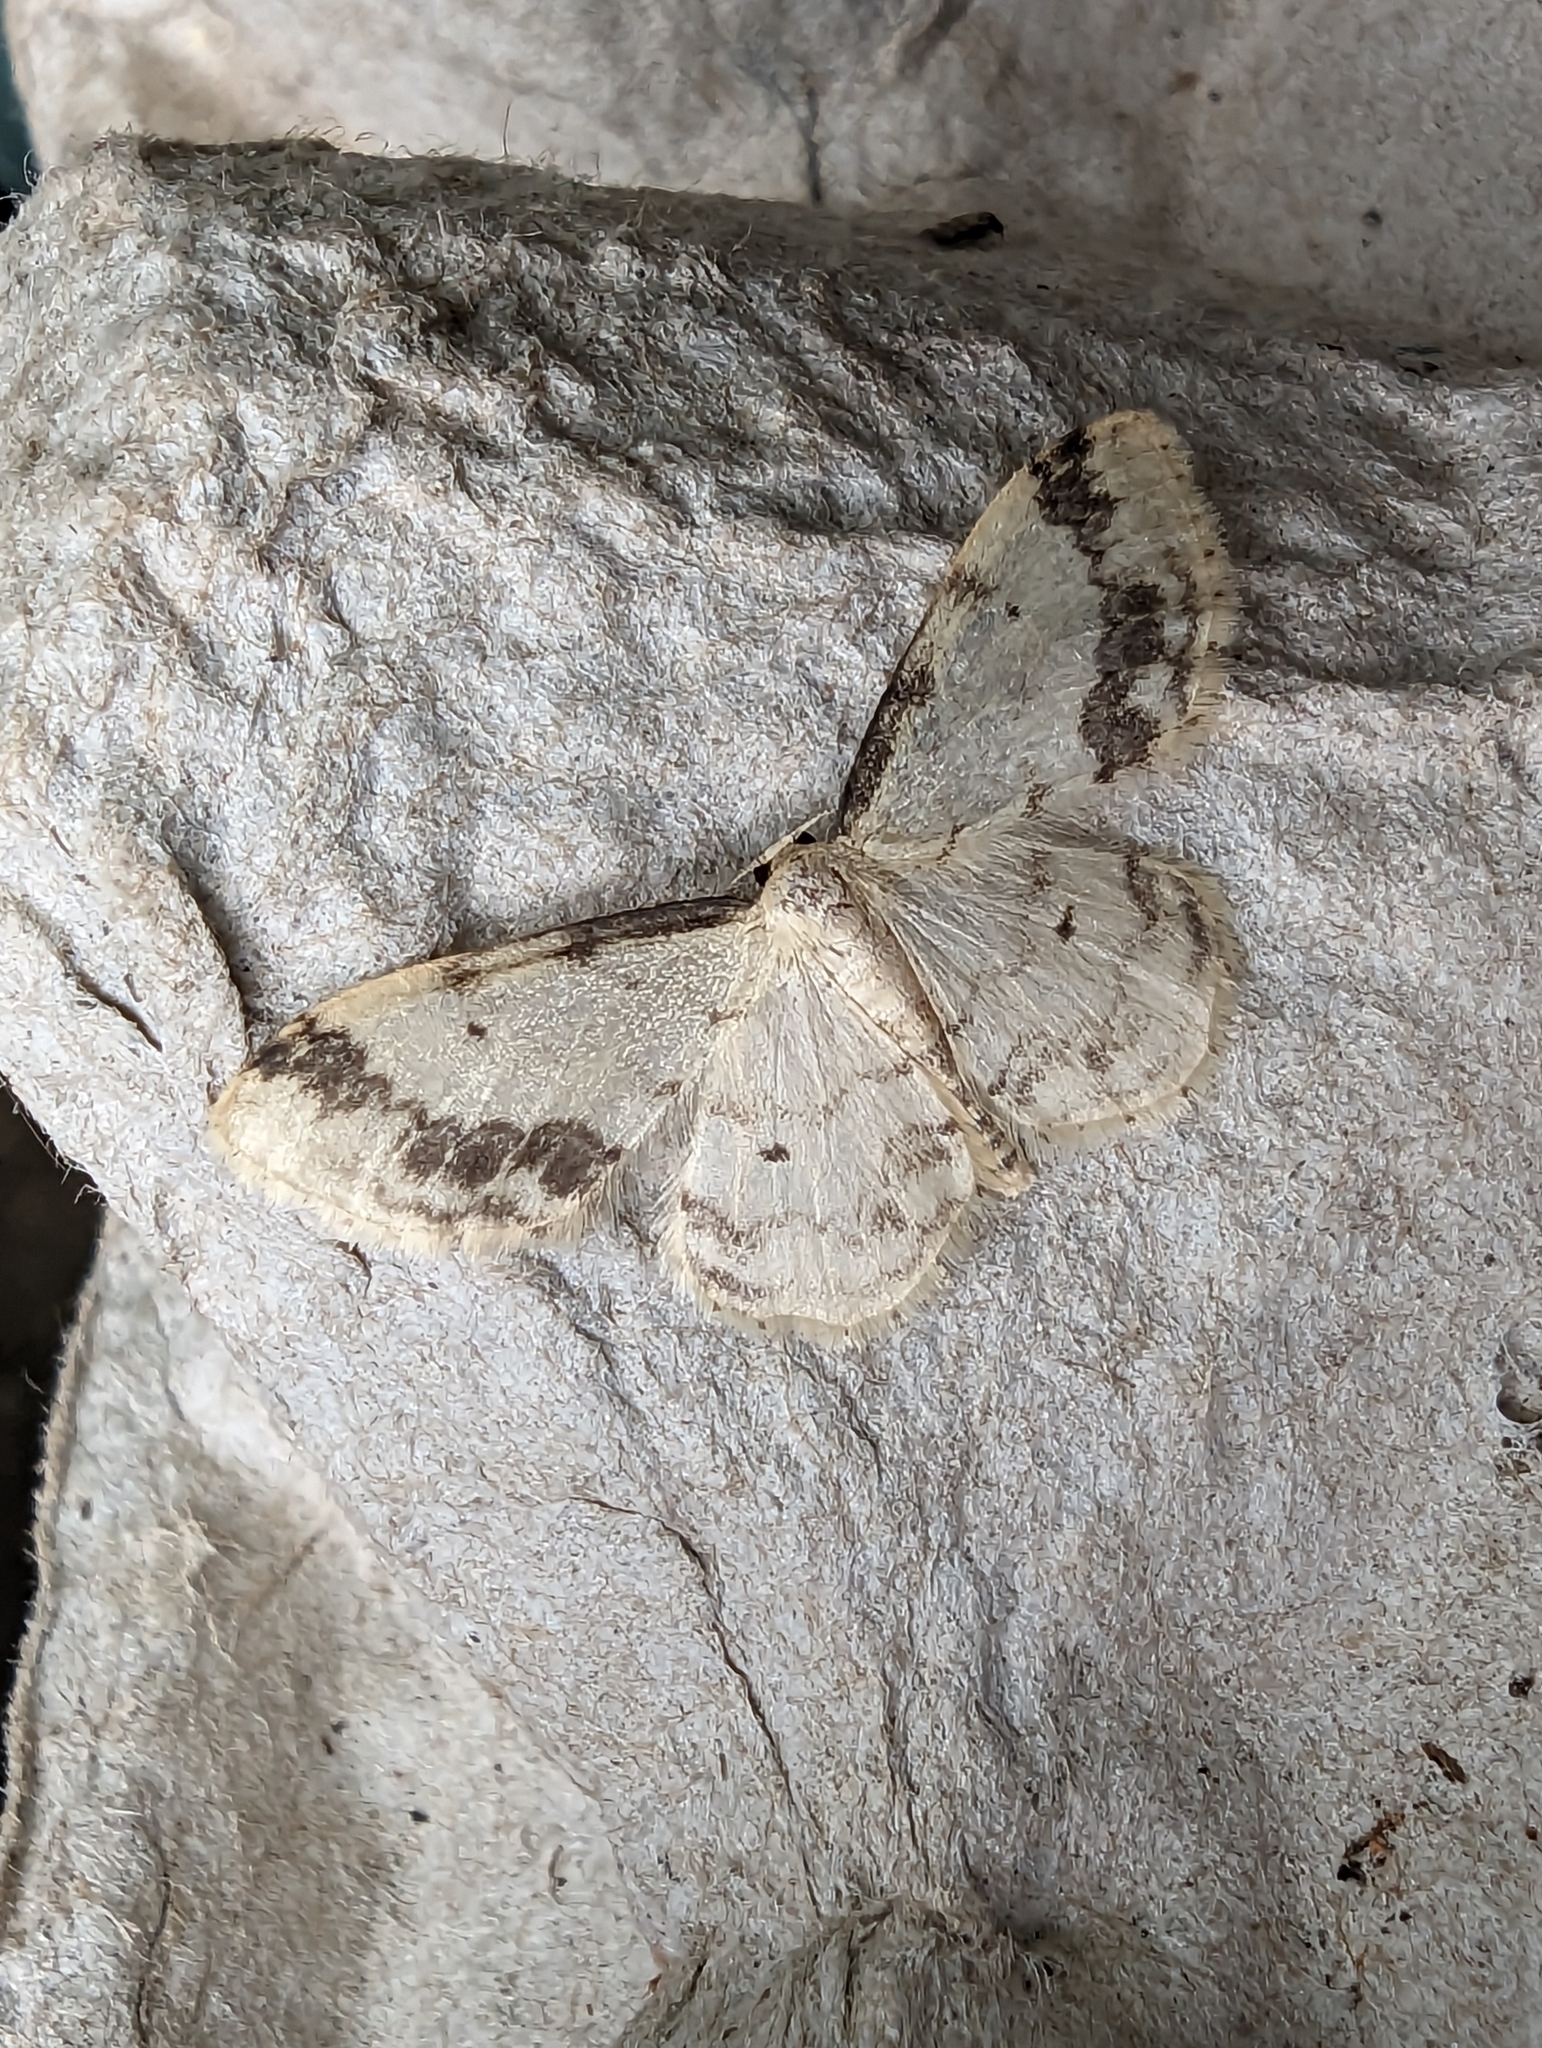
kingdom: Animalia
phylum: Arthropoda
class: Insecta
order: Lepidoptera
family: Geometridae
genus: Idaea
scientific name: Idaea trigeminata
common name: Treble brown spot
